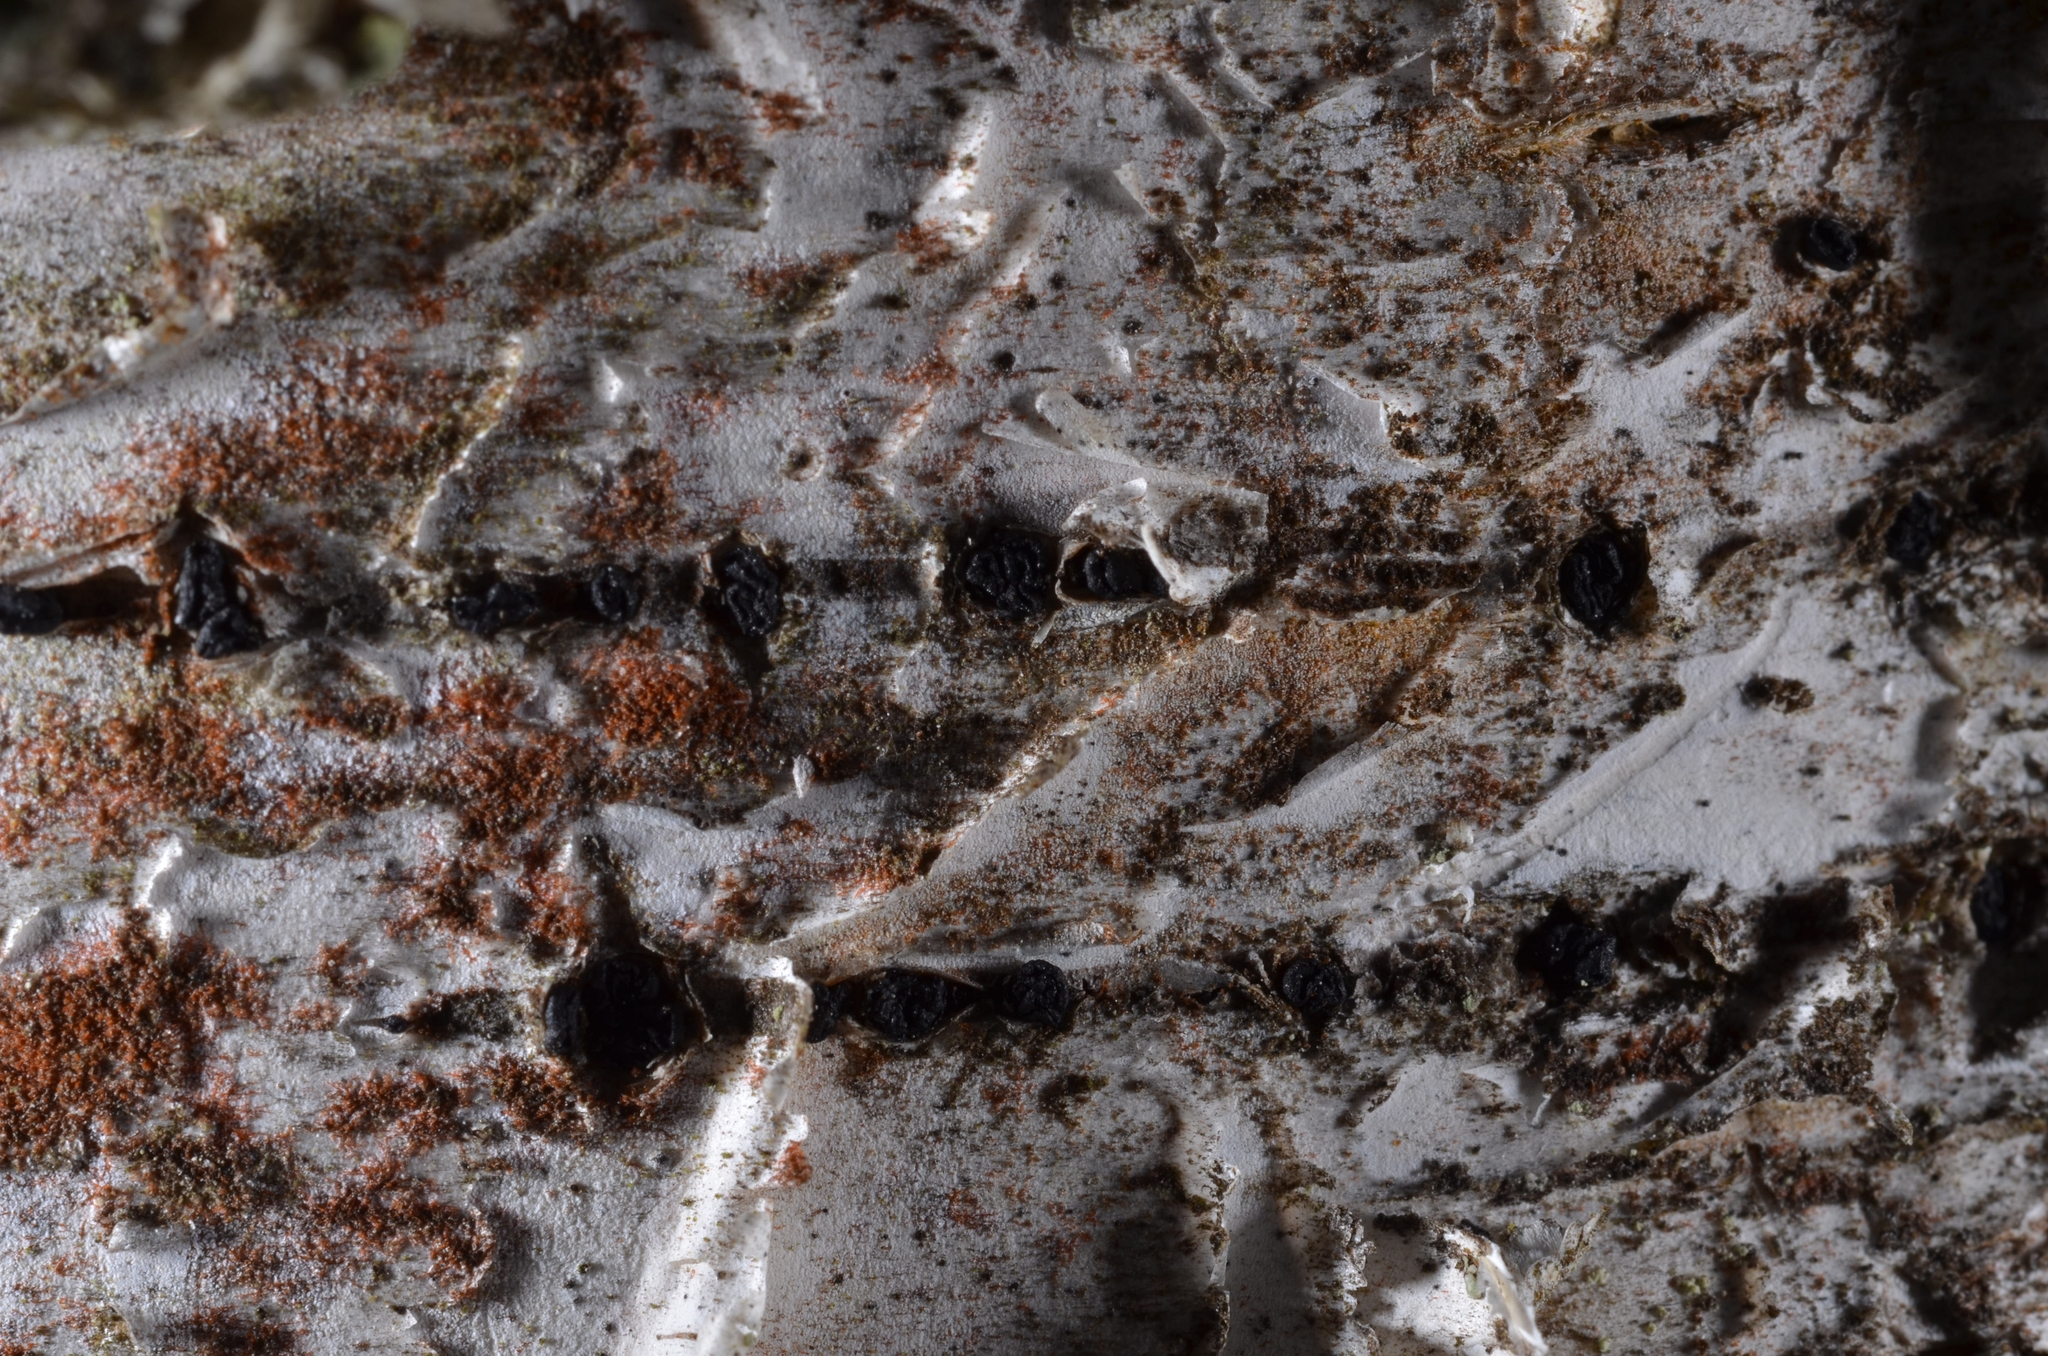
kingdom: Fungi
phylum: Ascomycota
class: Leotiomycetes
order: Leotiales
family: Tympanidaceae
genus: Durandiella
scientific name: Durandiella seriata
